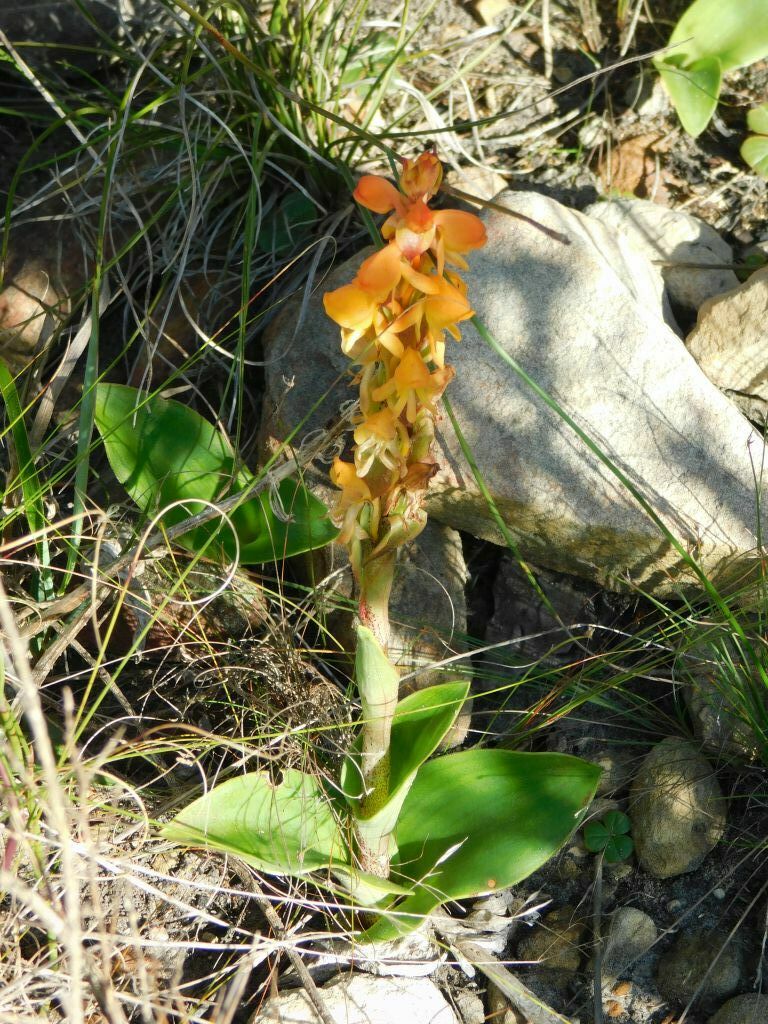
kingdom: Plantae
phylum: Tracheophyta
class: Liliopsida
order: Asparagales
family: Orchidaceae
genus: Satyrium
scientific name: Satyrium coriifolium
